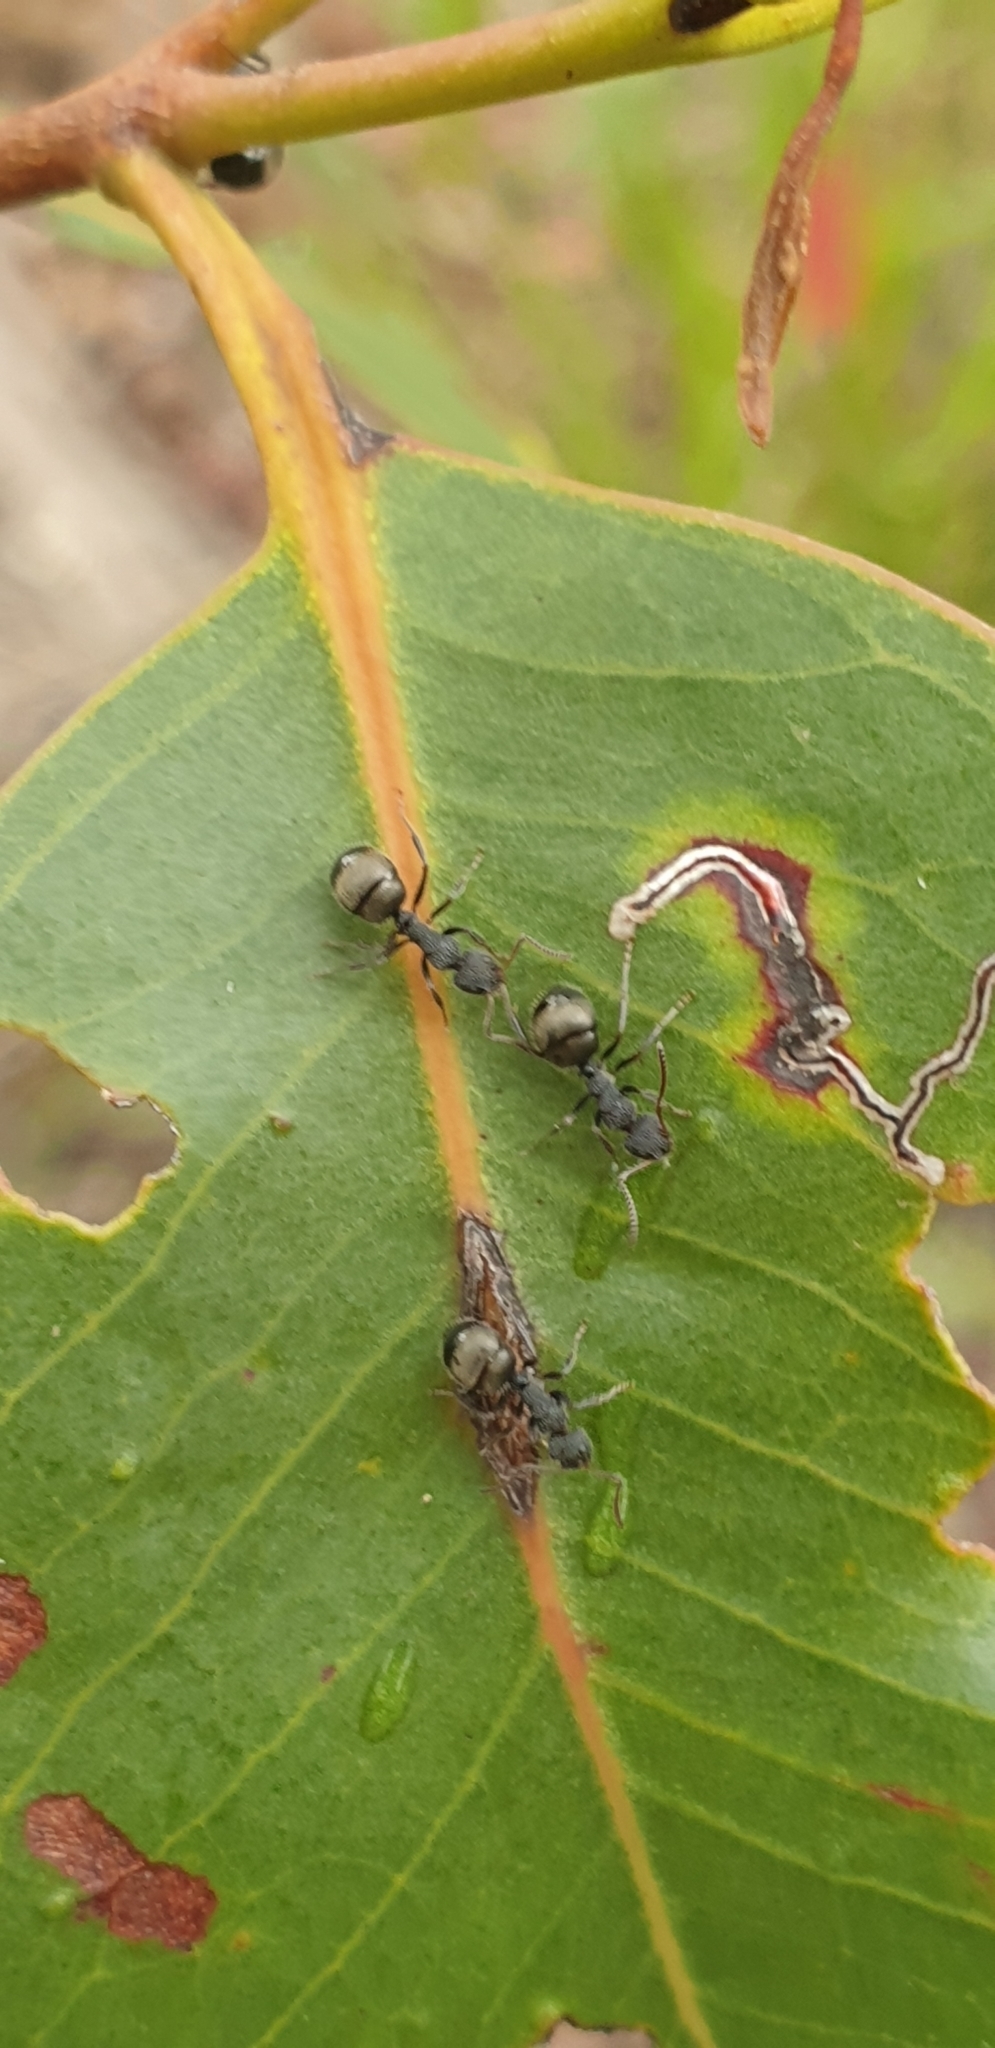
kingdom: Animalia
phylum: Arthropoda
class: Insecta
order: Hymenoptera
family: Formicidae
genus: Dolichoderus
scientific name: Dolichoderus scrobiculatus
